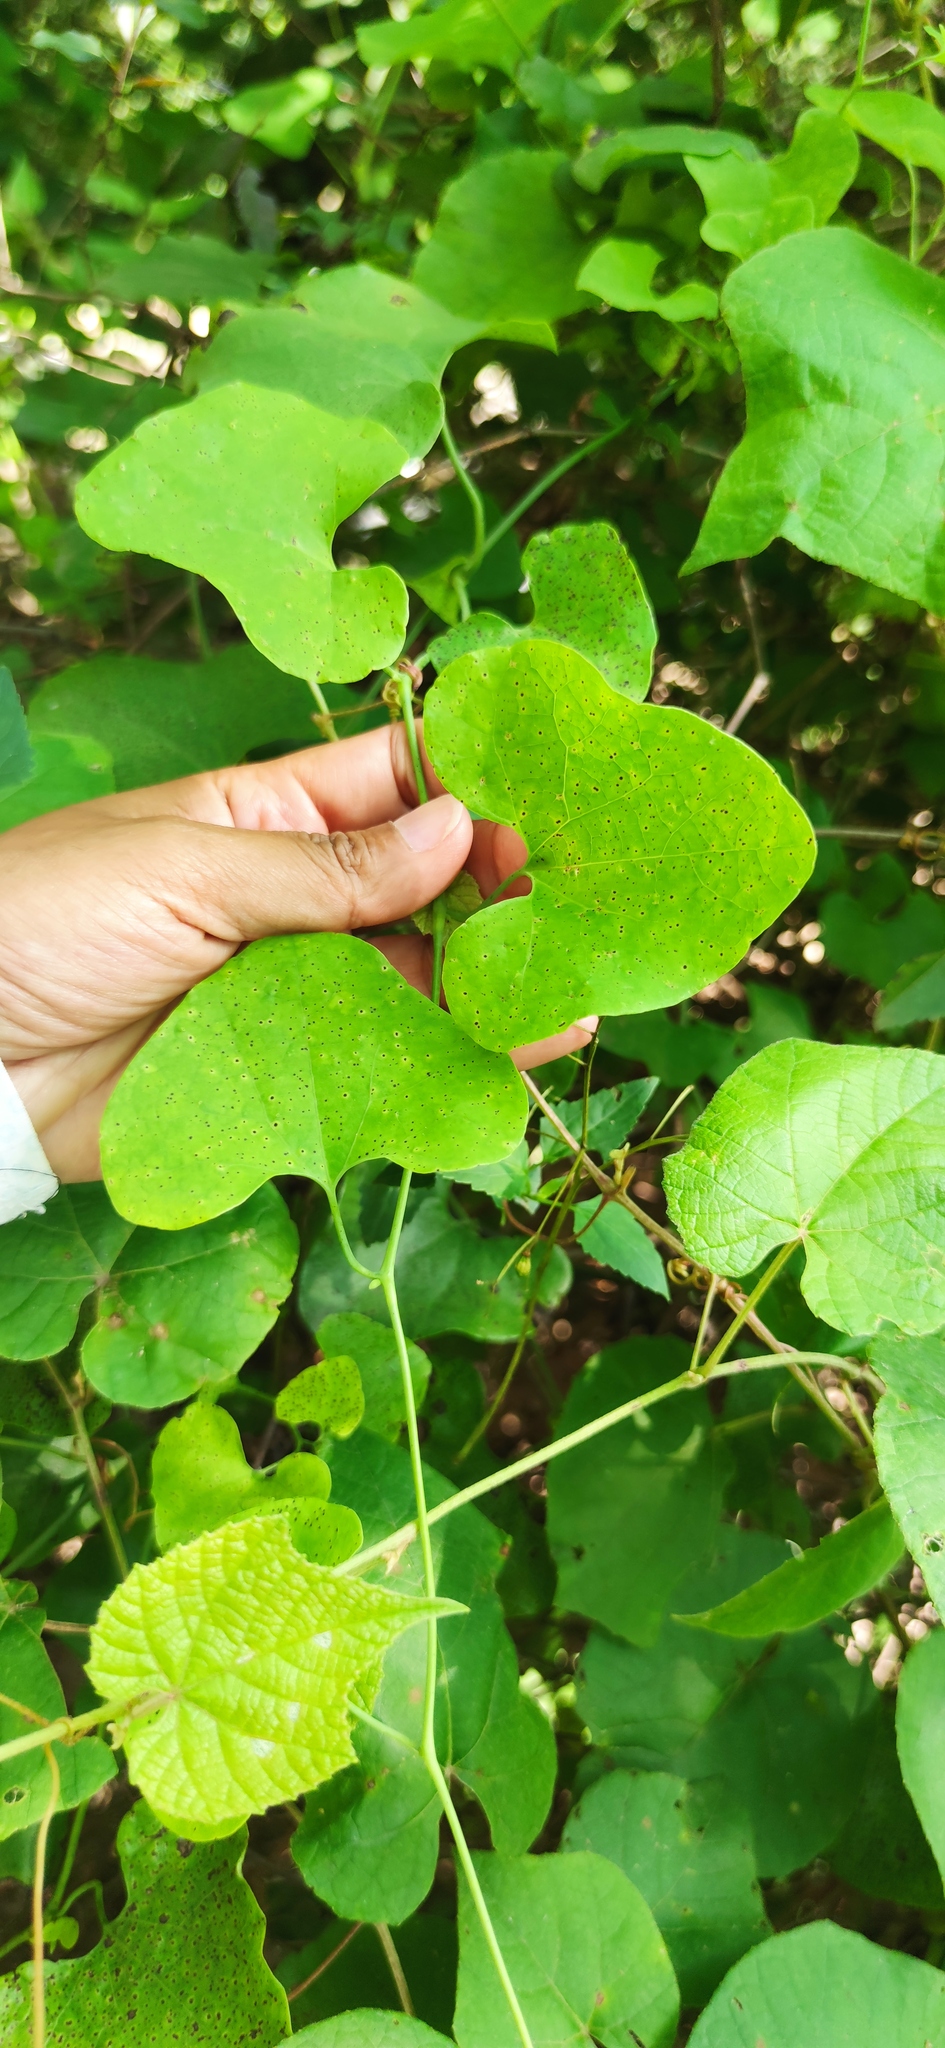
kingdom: Plantae
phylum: Tracheophyta
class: Magnoliopsida
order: Piperales
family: Aristolochiaceae
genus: Aristolochia
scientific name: Aristolochia littoralis
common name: Duck
